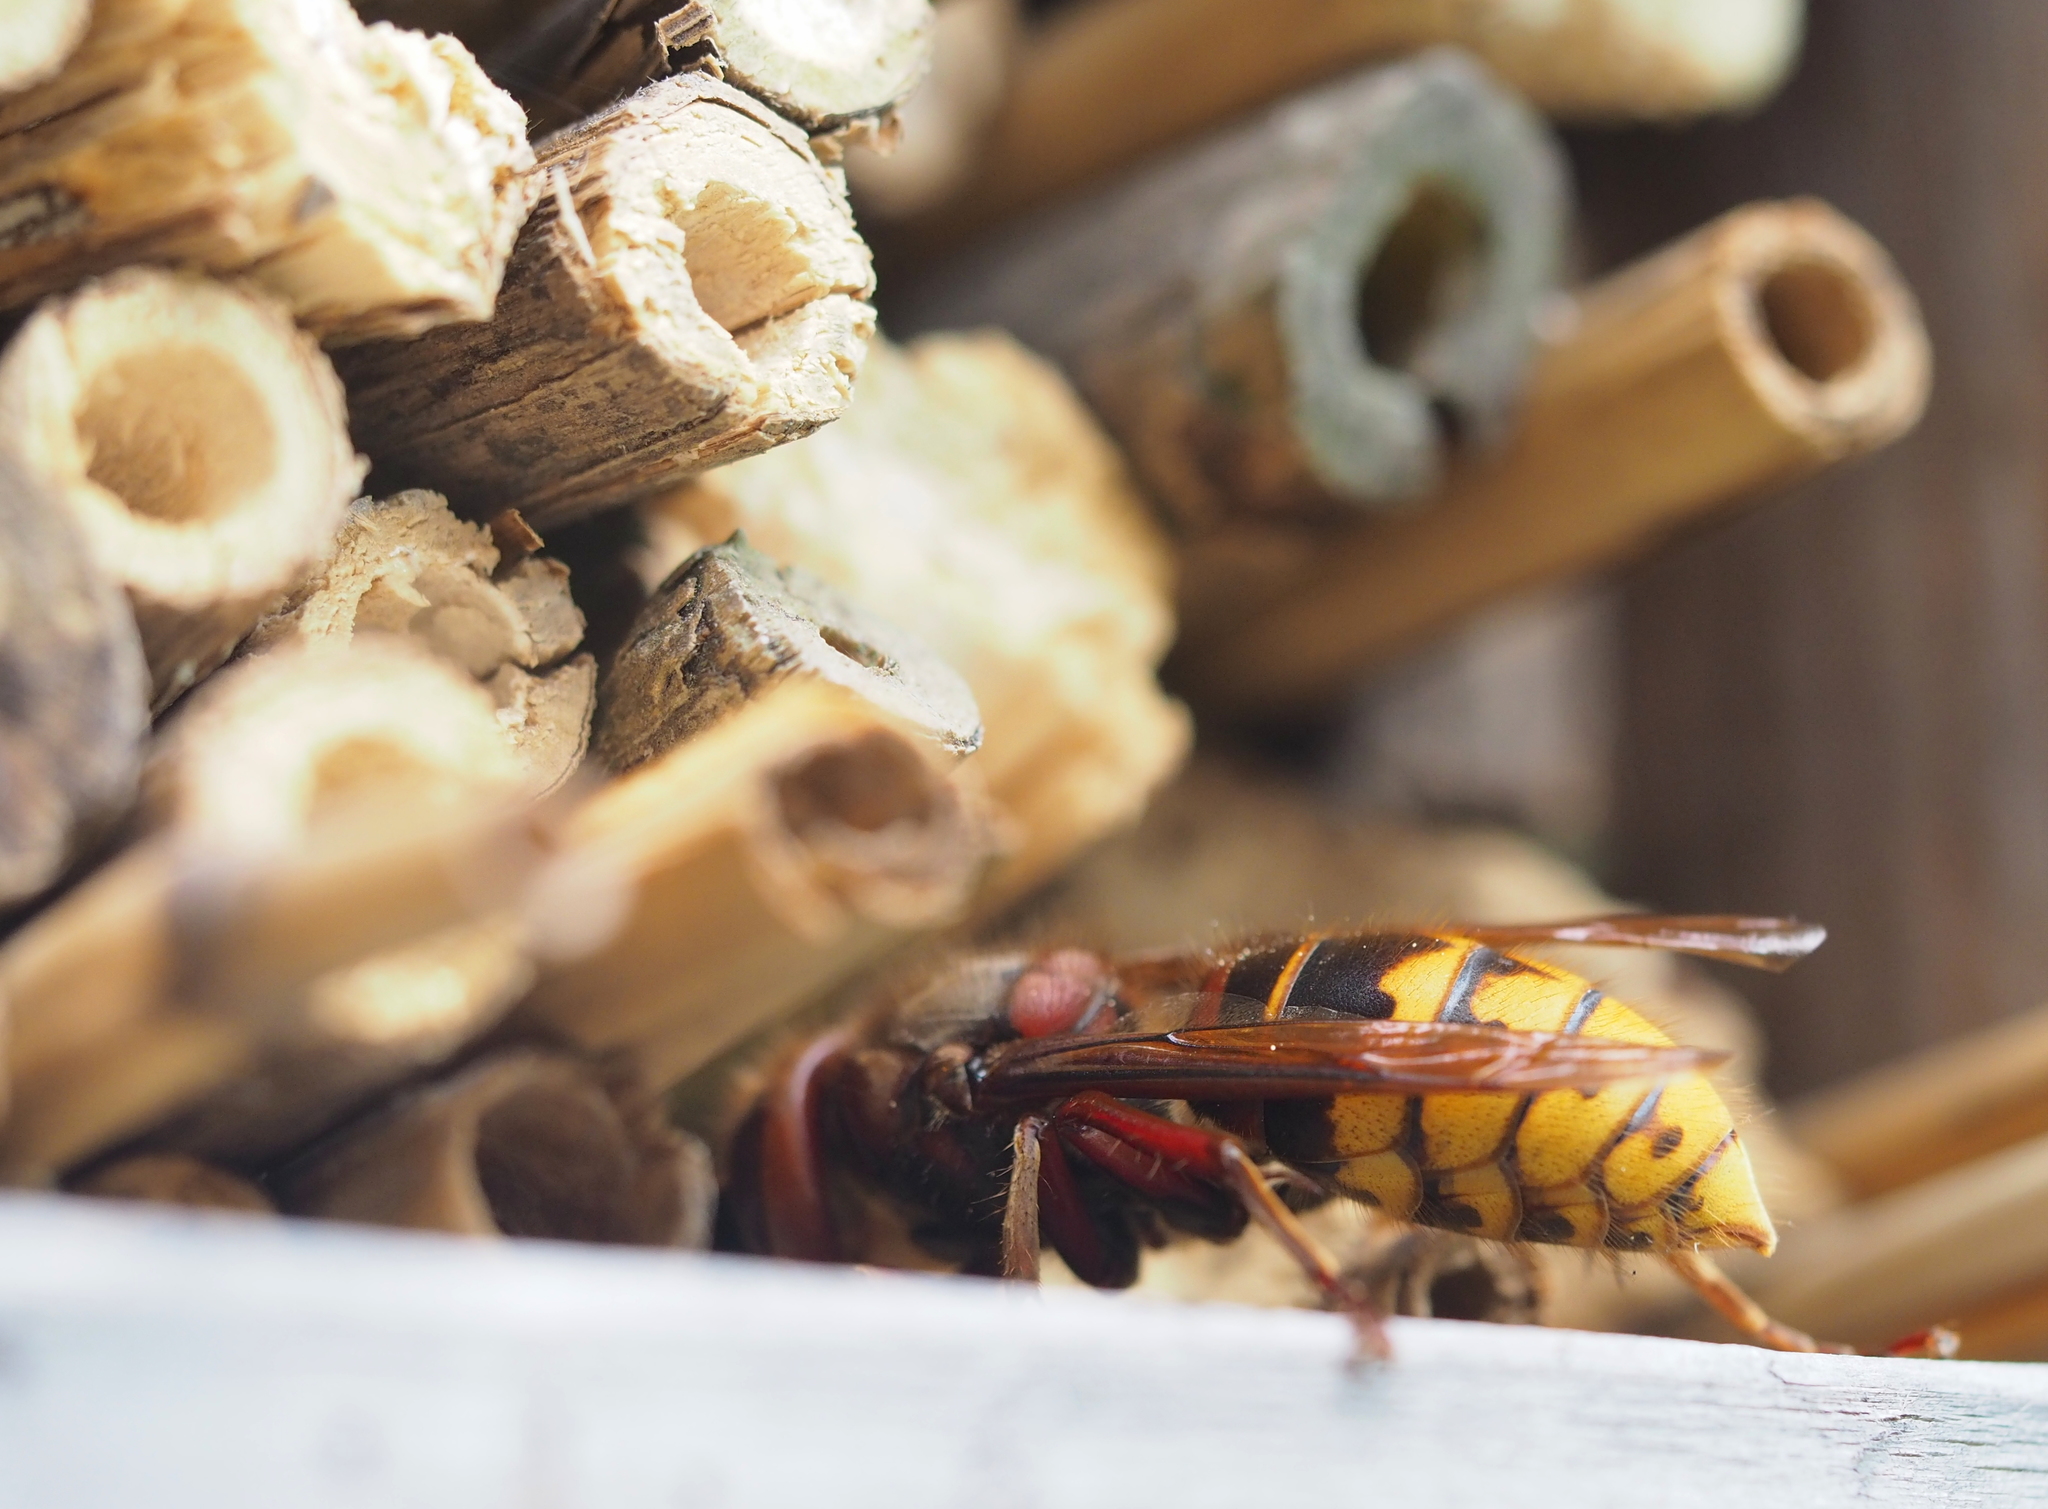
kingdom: Animalia
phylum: Arthropoda
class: Insecta
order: Hymenoptera
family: Vespidae
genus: Vespa
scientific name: Vespa crabro
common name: Hornet
